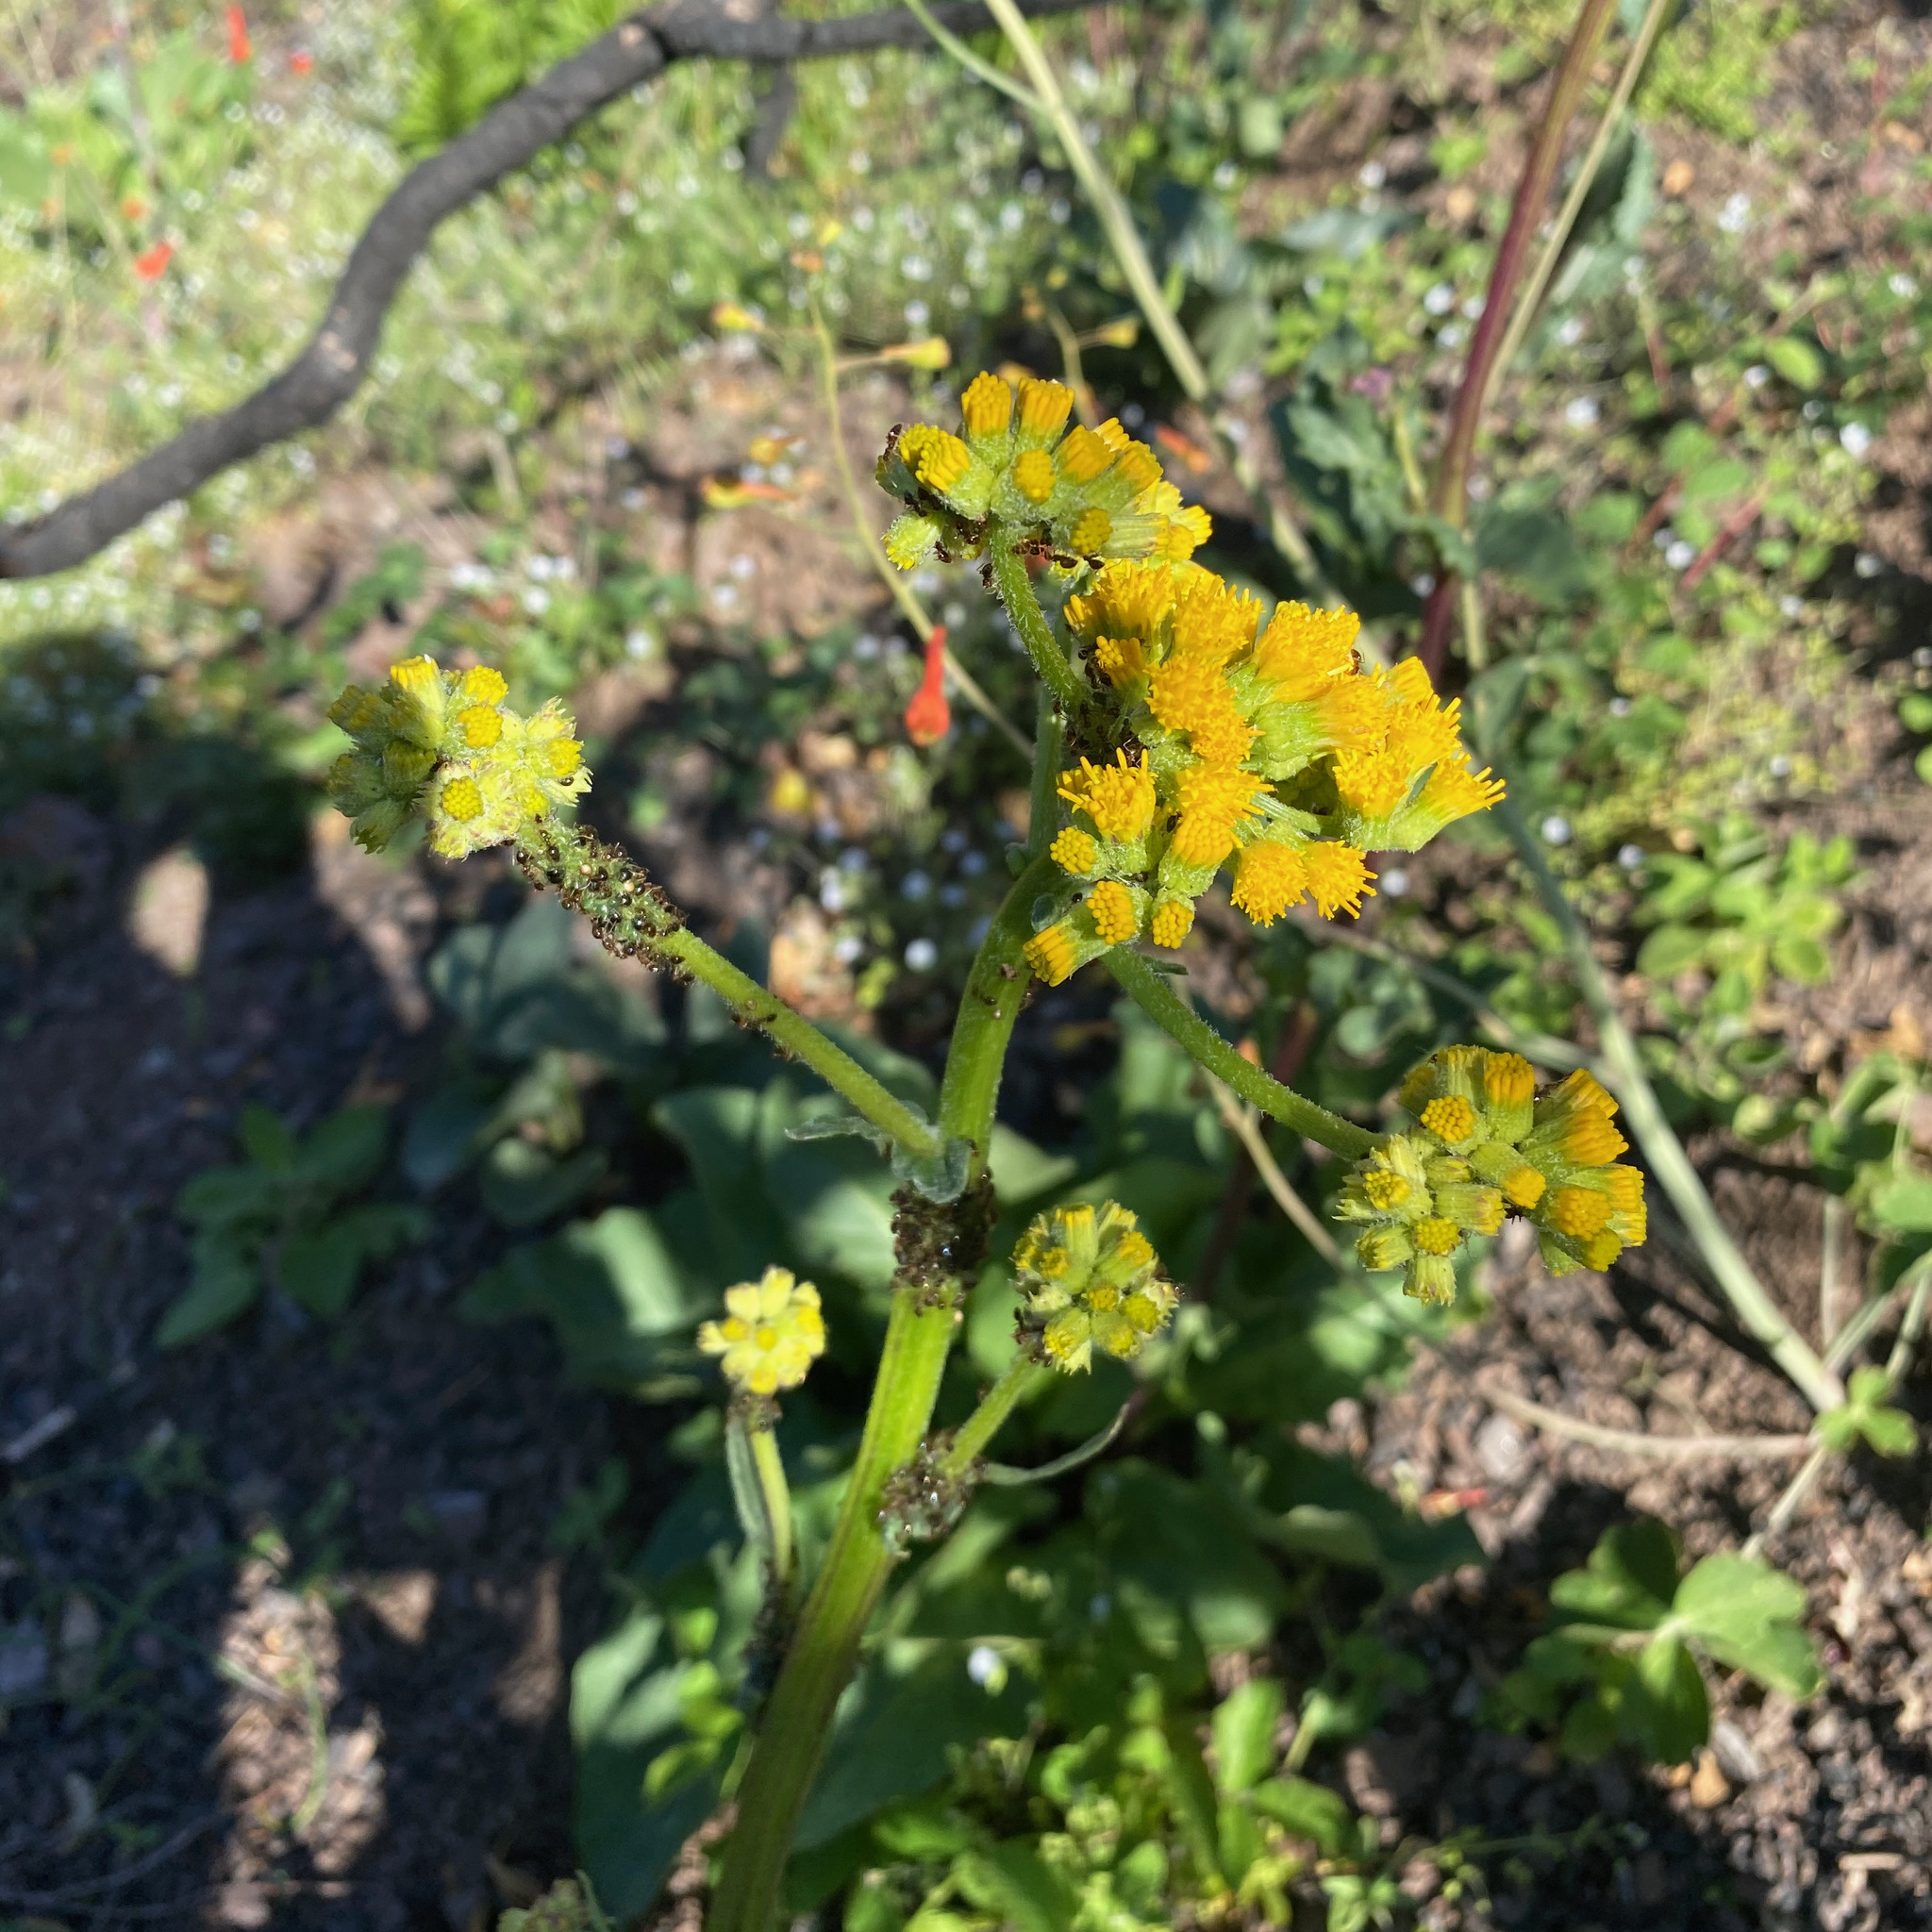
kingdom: Animalia
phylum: Arthropoda
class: Insecta
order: Hymenoptera
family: Formicidae
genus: Prenolepis
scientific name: Prenolepis imparis
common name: Small honey ant
